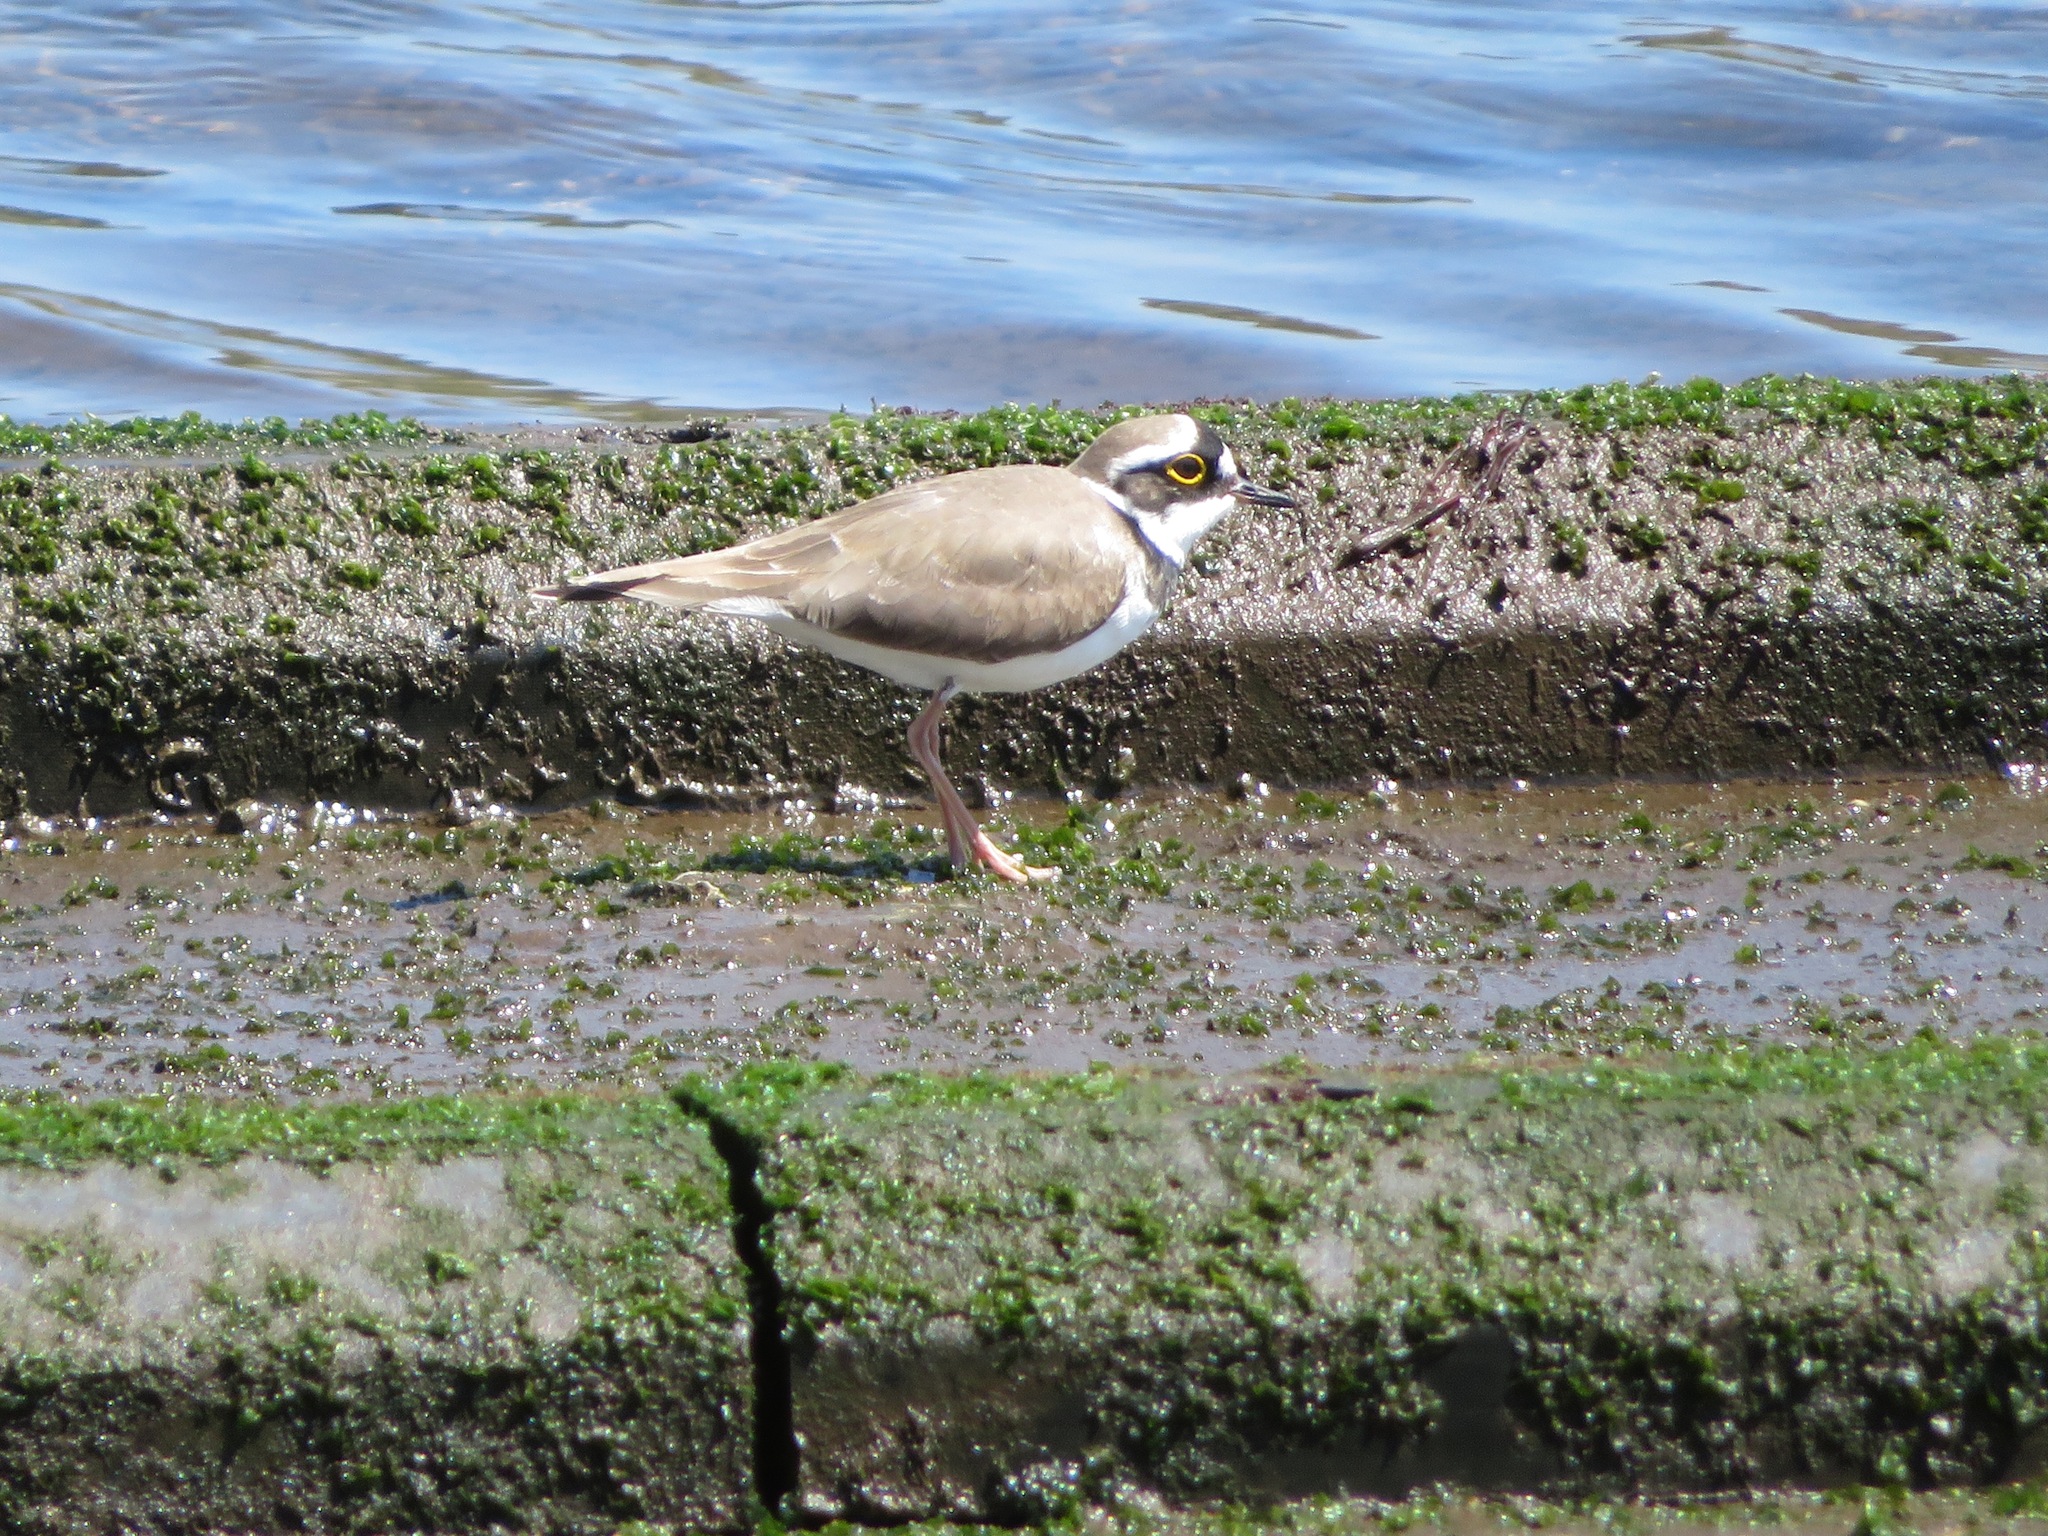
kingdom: Animalia
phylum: Chordata
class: Aves
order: Charadriiformes
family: Charadriidae
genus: Charadrius
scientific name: Charadrius dubius
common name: Little ringed plover
